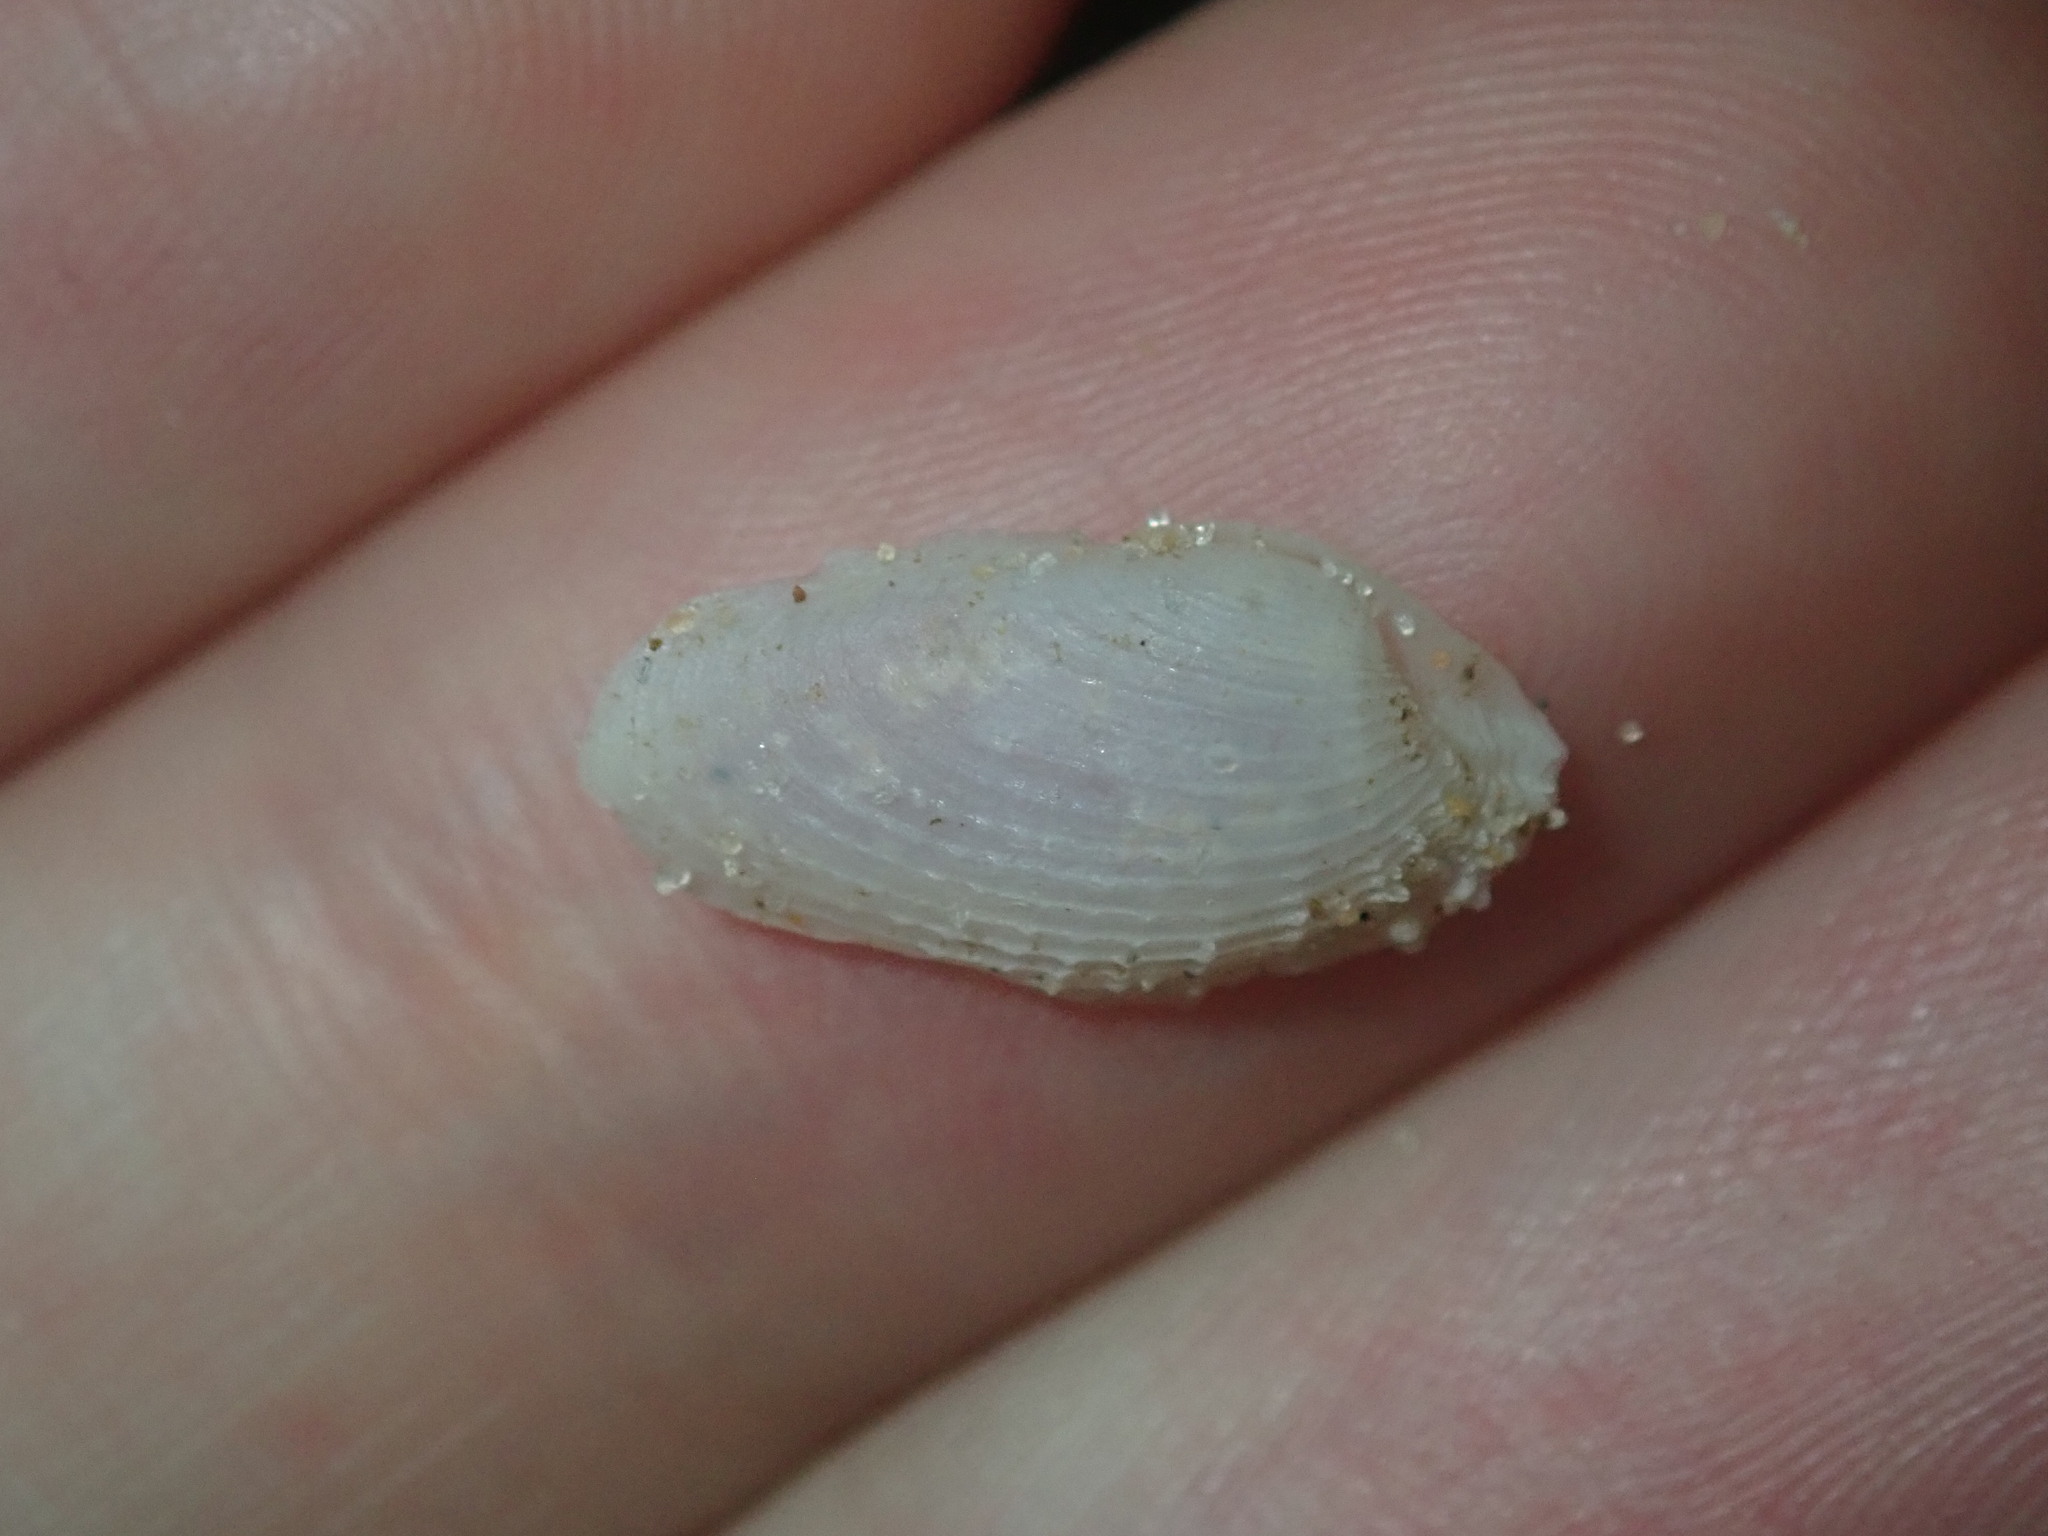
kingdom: Animalia
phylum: Mollusca
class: Bivalvia
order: Myida
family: Pholadidae
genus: Barnea
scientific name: Barnea australasiae
